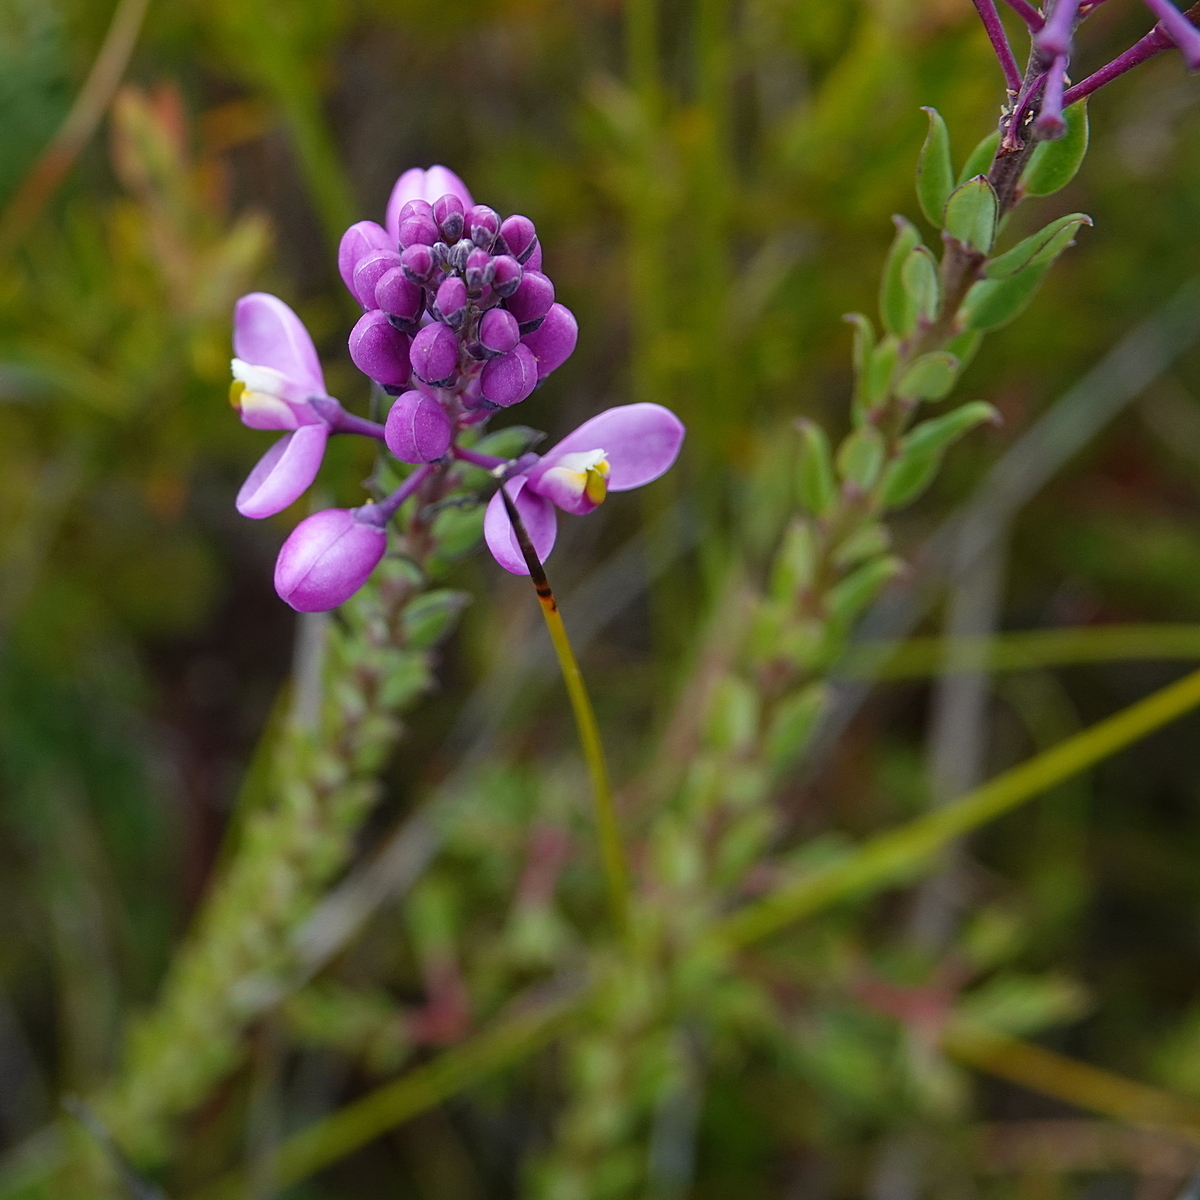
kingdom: Plantae
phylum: Tracheophyta
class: Magnoliopsida
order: Fabales
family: Polygalaceae
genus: Comesperma
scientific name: Comesperma ericinum
